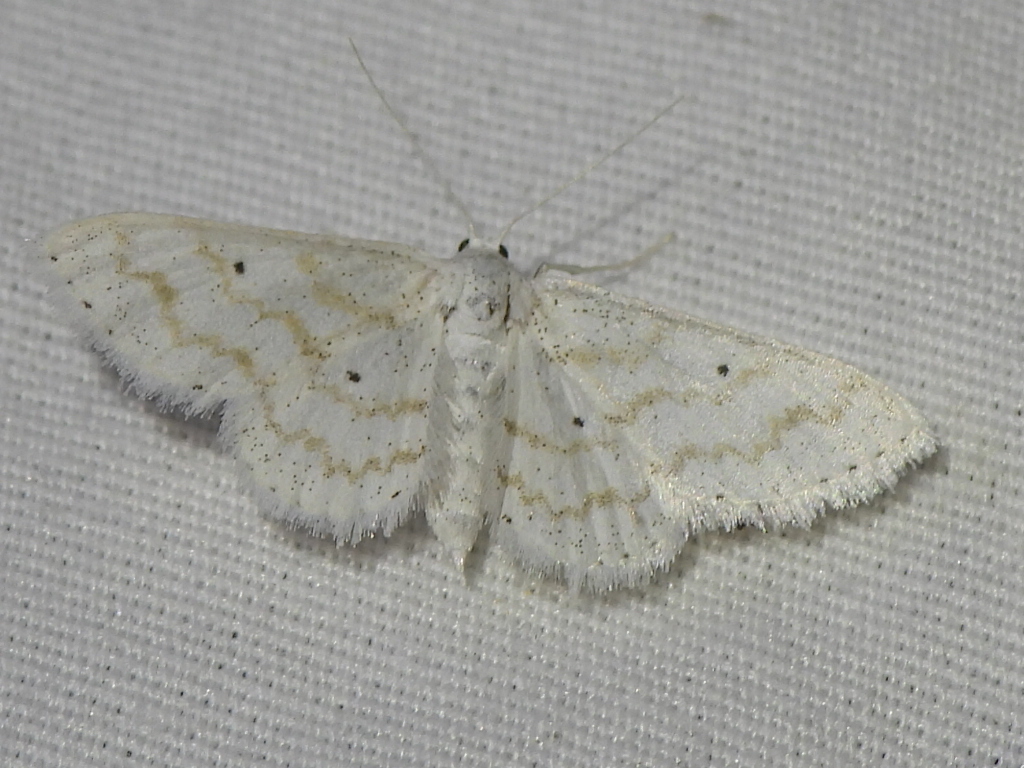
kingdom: Animalia
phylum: Arthropoda
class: Insecta
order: Lepidoptera
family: Geometridae
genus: Lobocleta
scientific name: Lobocleta peralbata
